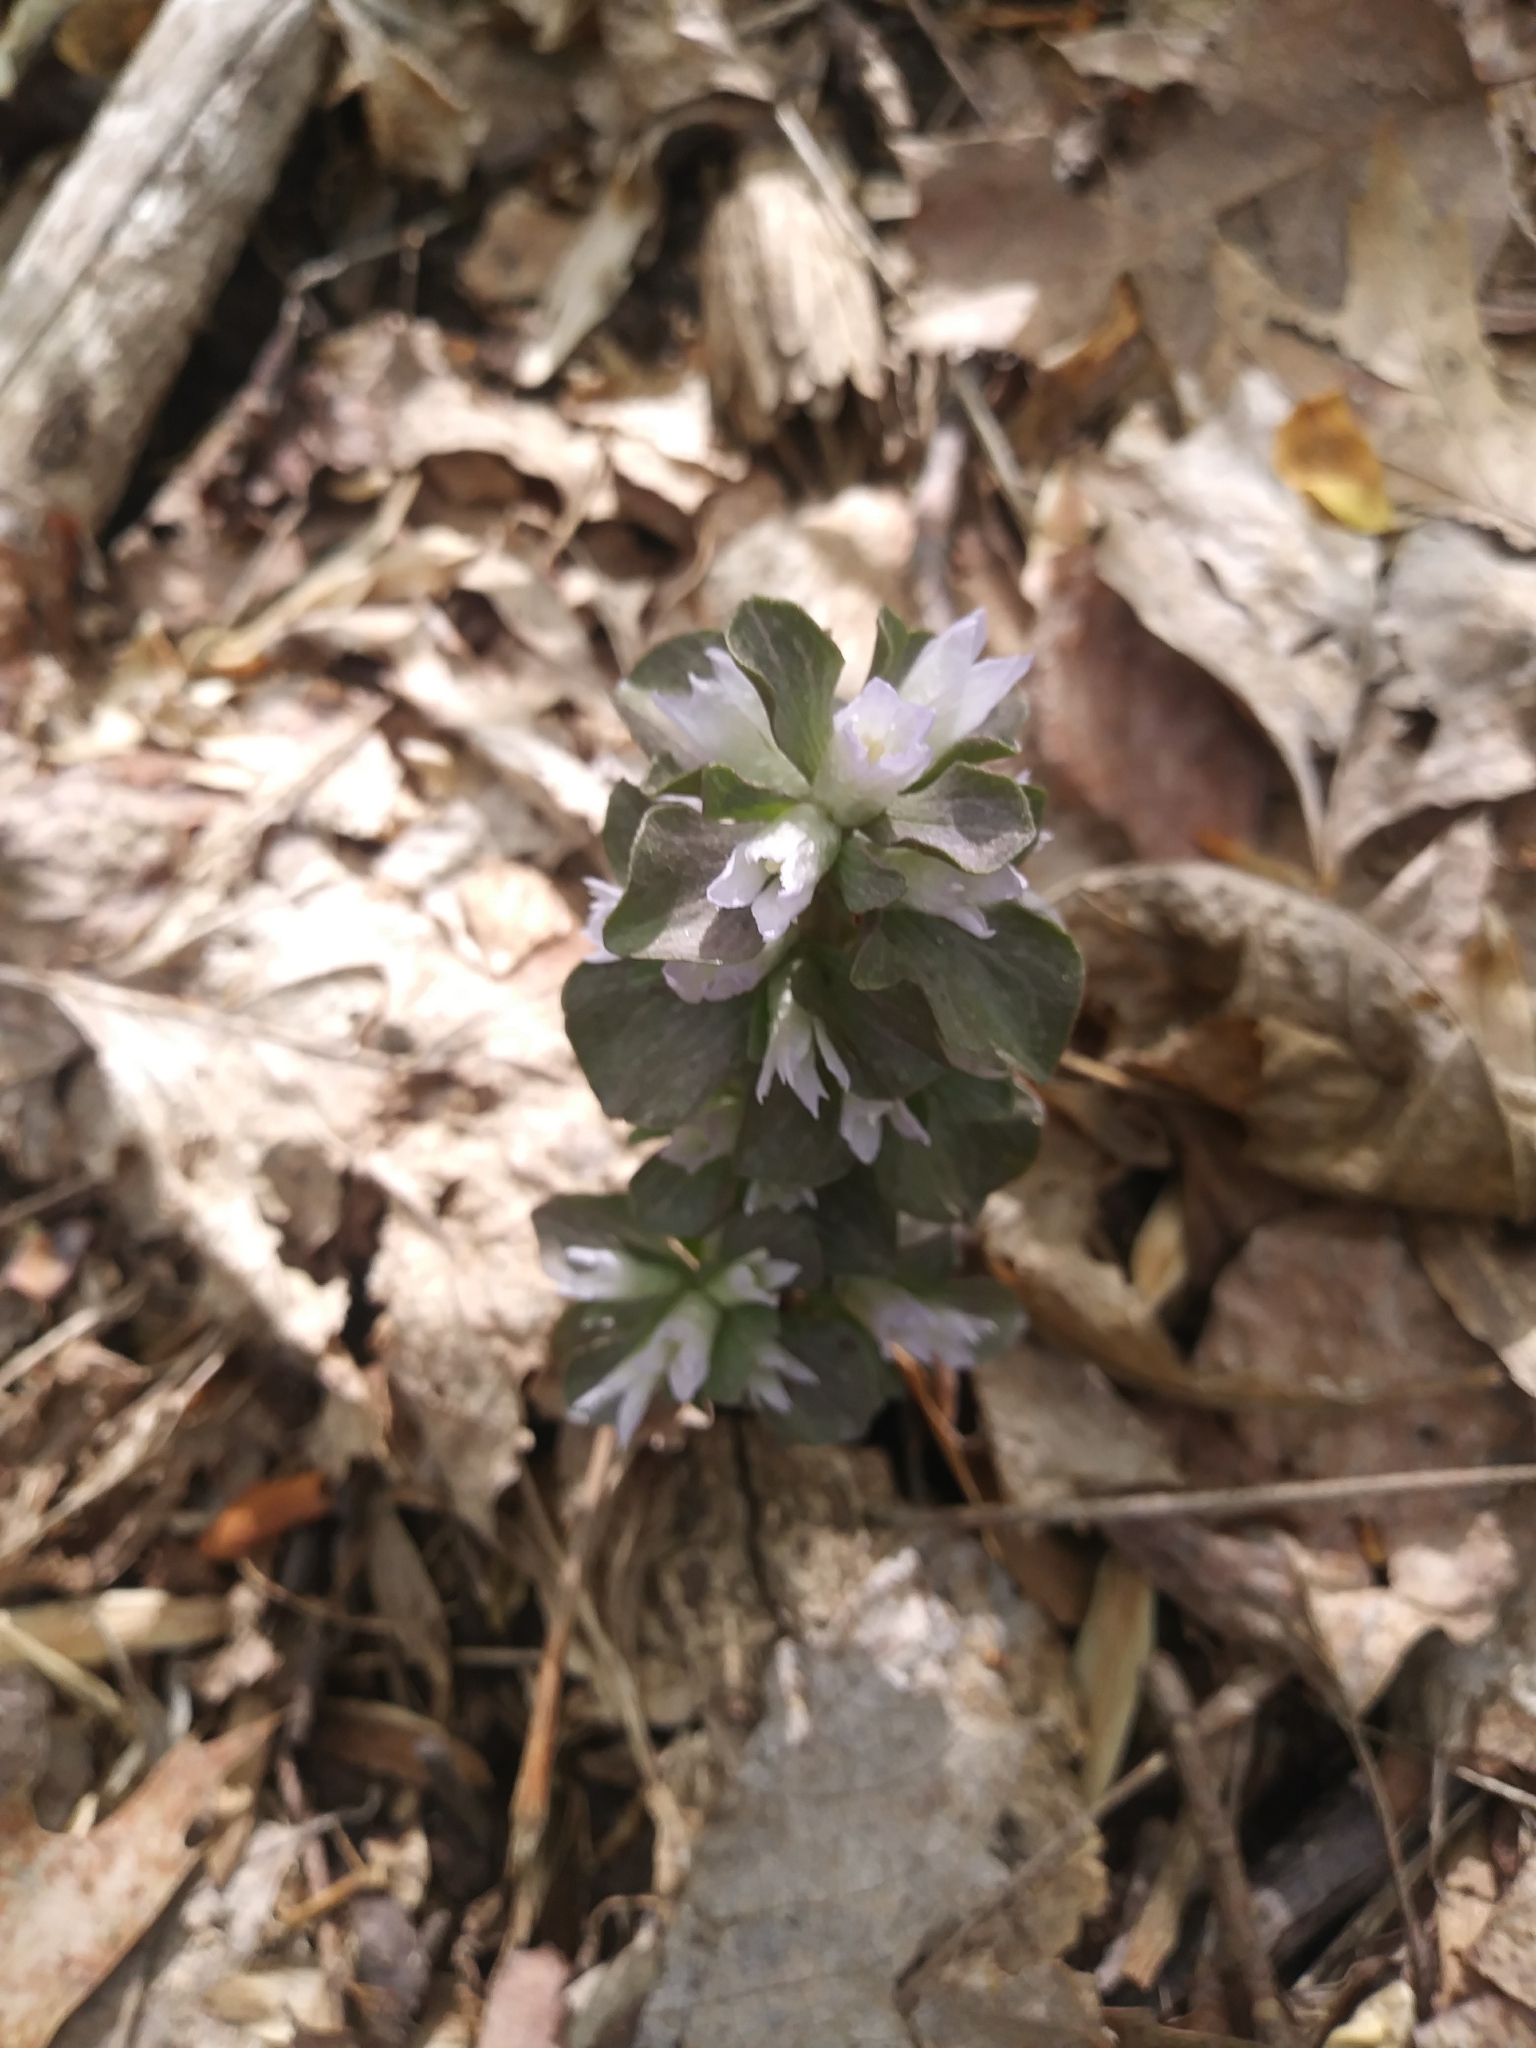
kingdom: Plantae
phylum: Tracheophyta
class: Magnoliopsida
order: Gentianales
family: Gentianaceae
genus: Obolaria
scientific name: Obolaria virginica
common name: Pennywort
